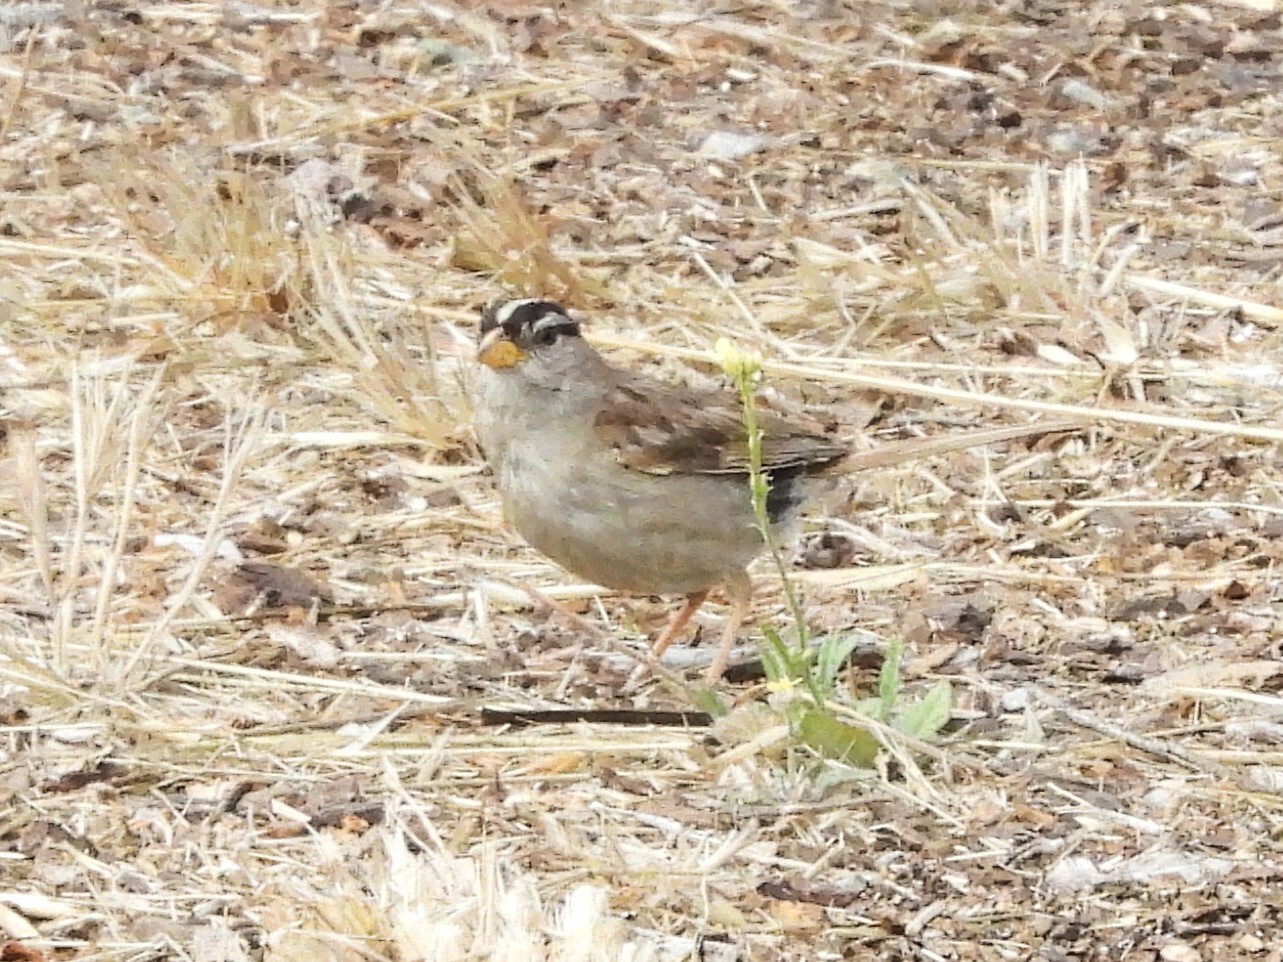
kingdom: Animalia
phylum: Chordata
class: Aves
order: Passeriformes
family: Passerellidae
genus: Zonotrichia
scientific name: Zonotrichia leucophrys
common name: White-crowned sparrow
